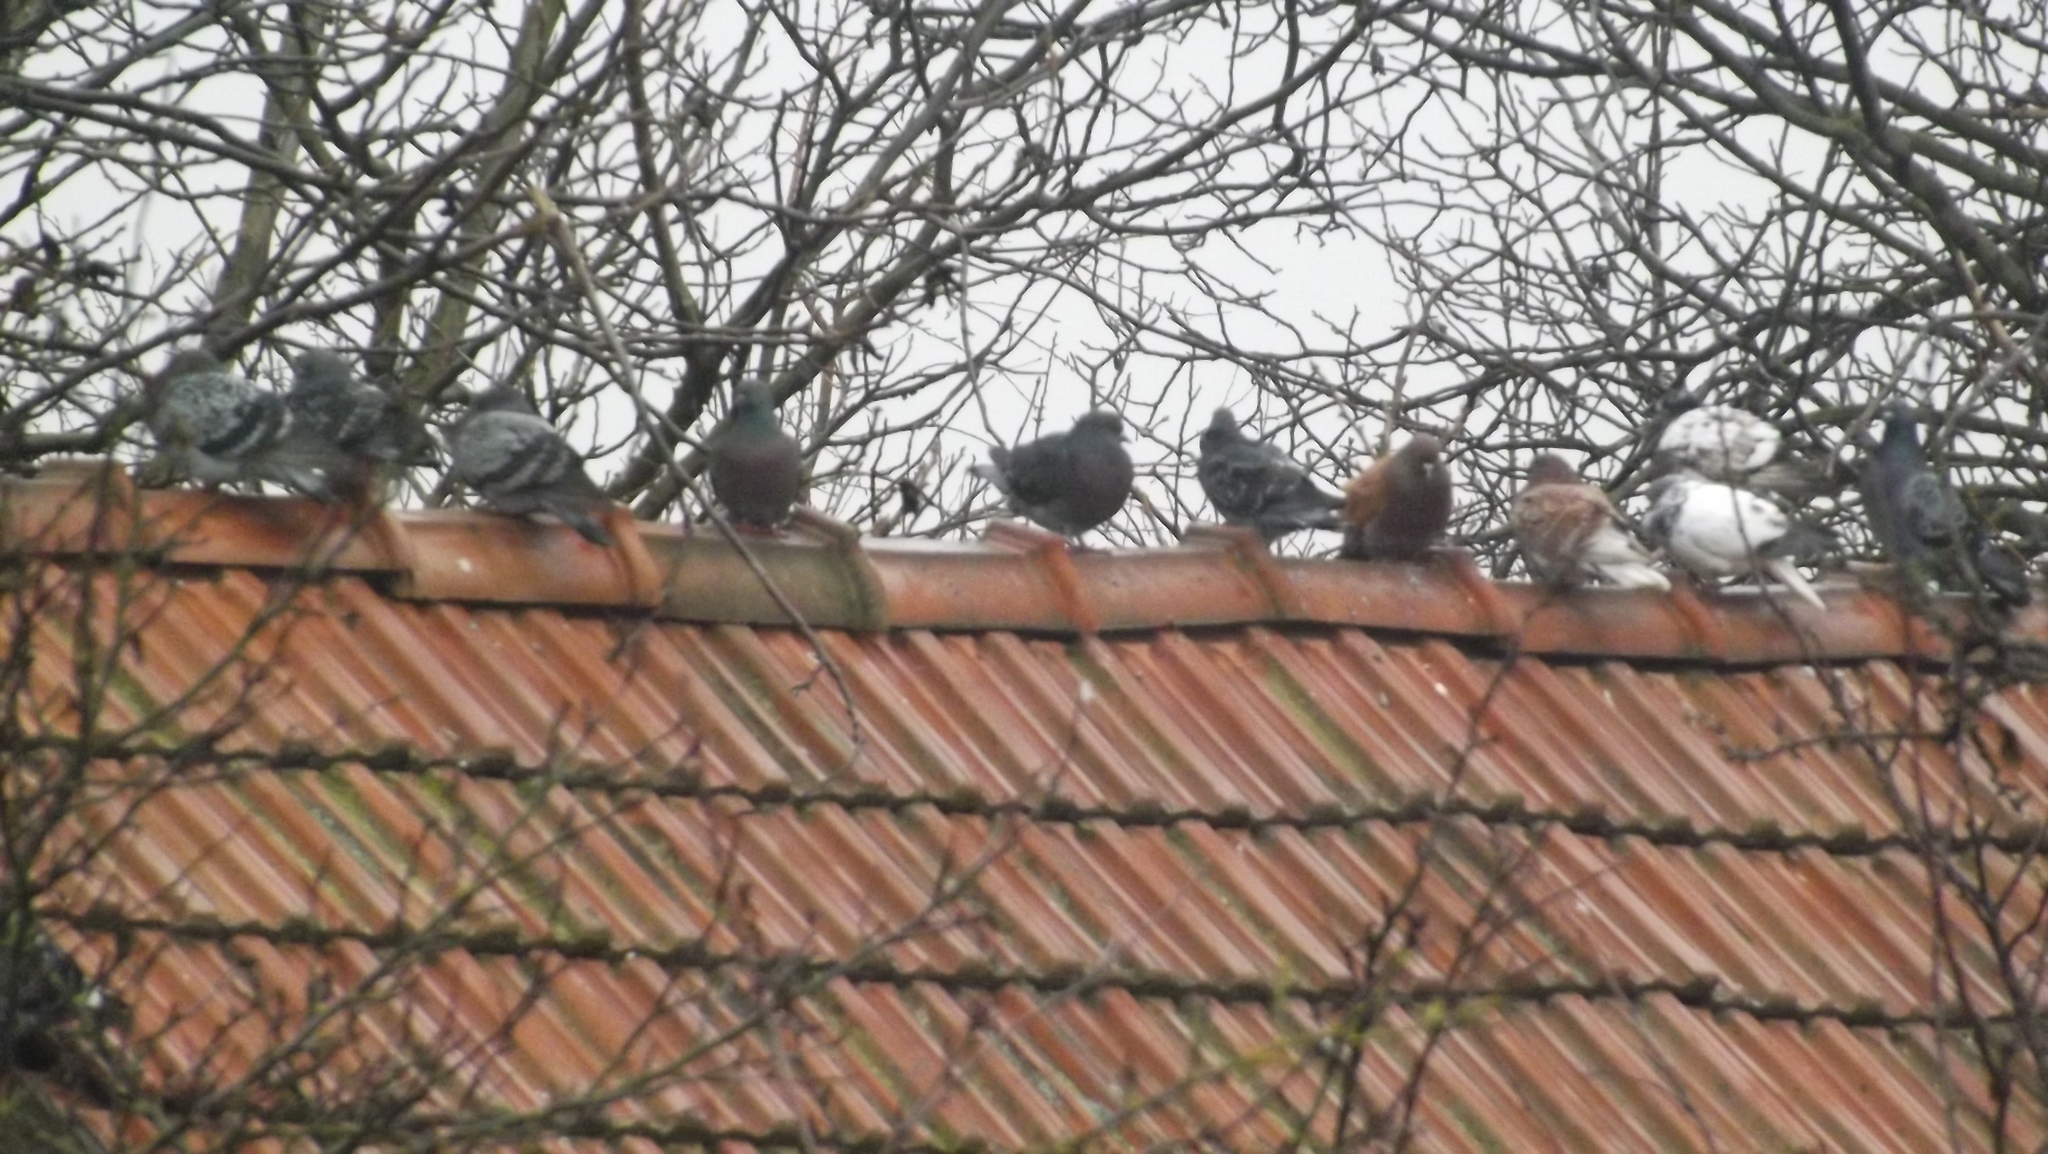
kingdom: Animalia
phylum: Chordata
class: Aves
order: Columbiformes
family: Columbidae
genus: Columba
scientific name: Columba livia
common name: Rock pigeon
